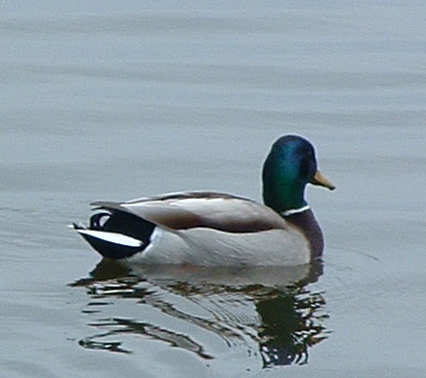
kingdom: Animalia
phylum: Chordata
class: Aves
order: Anseriformes
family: Anatidae
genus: Anas
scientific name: Anas platyrhynchos
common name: Mallard
